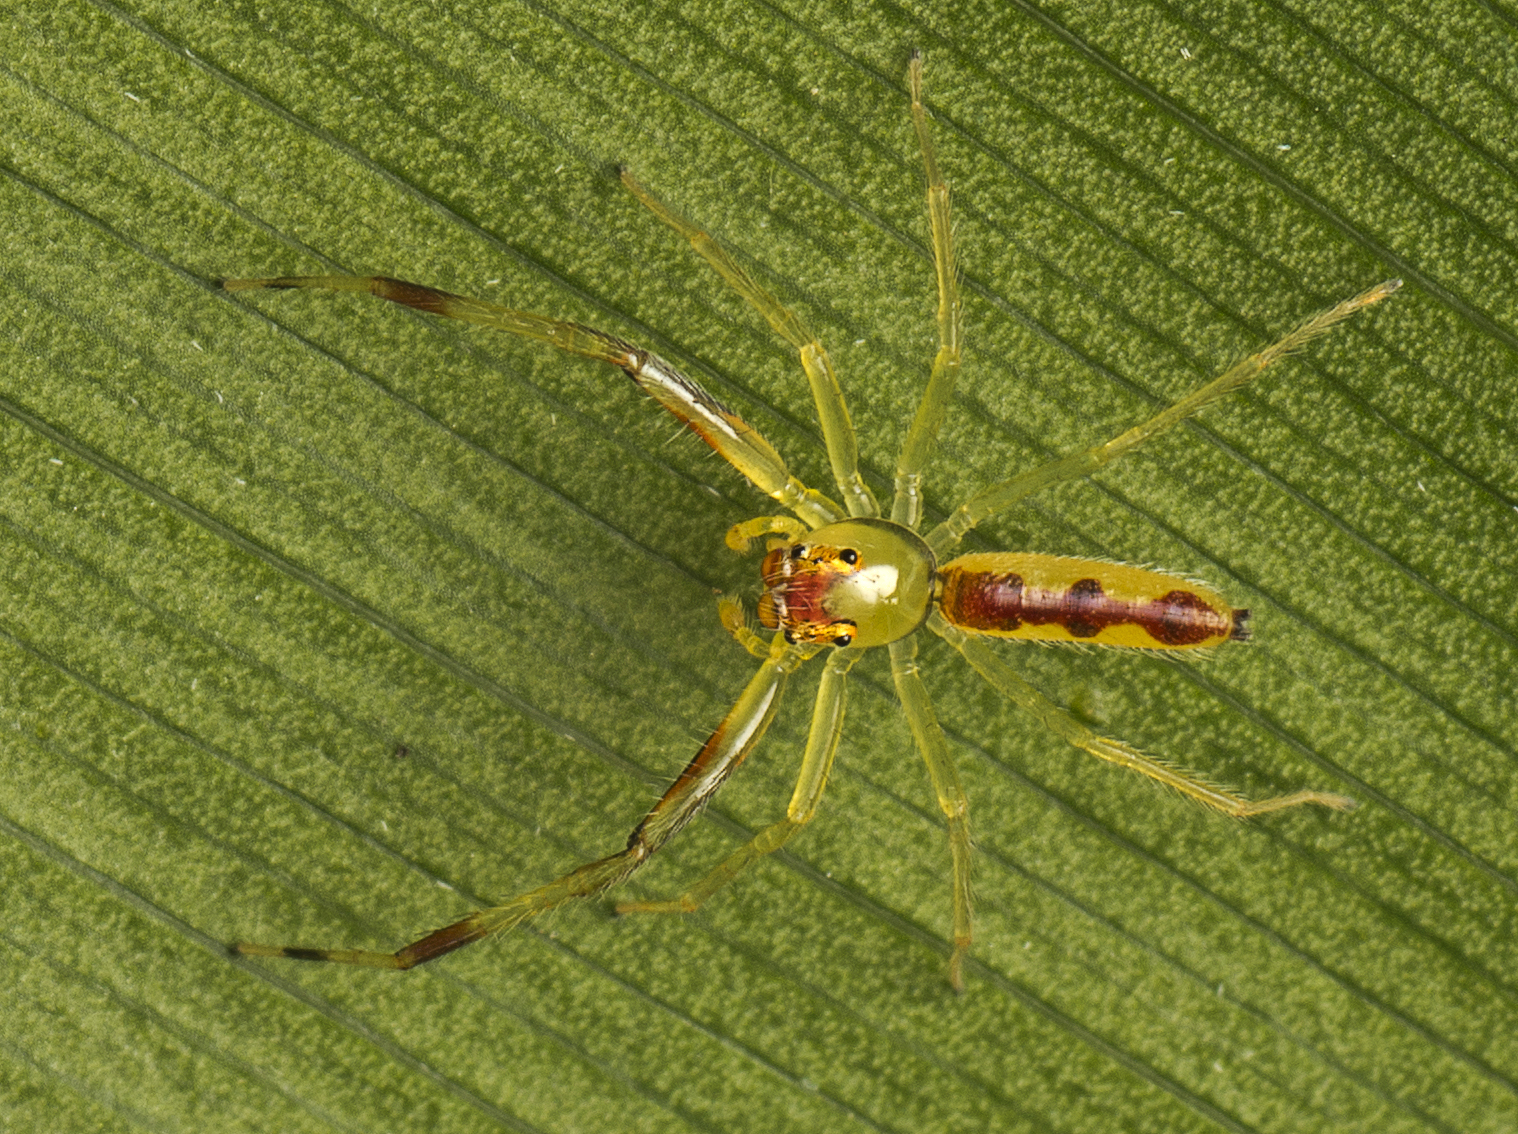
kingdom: Animalia
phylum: Arthropoda
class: Arachnida
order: Araneae
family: Salticidae
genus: Astilodes
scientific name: Astilodes mariae
